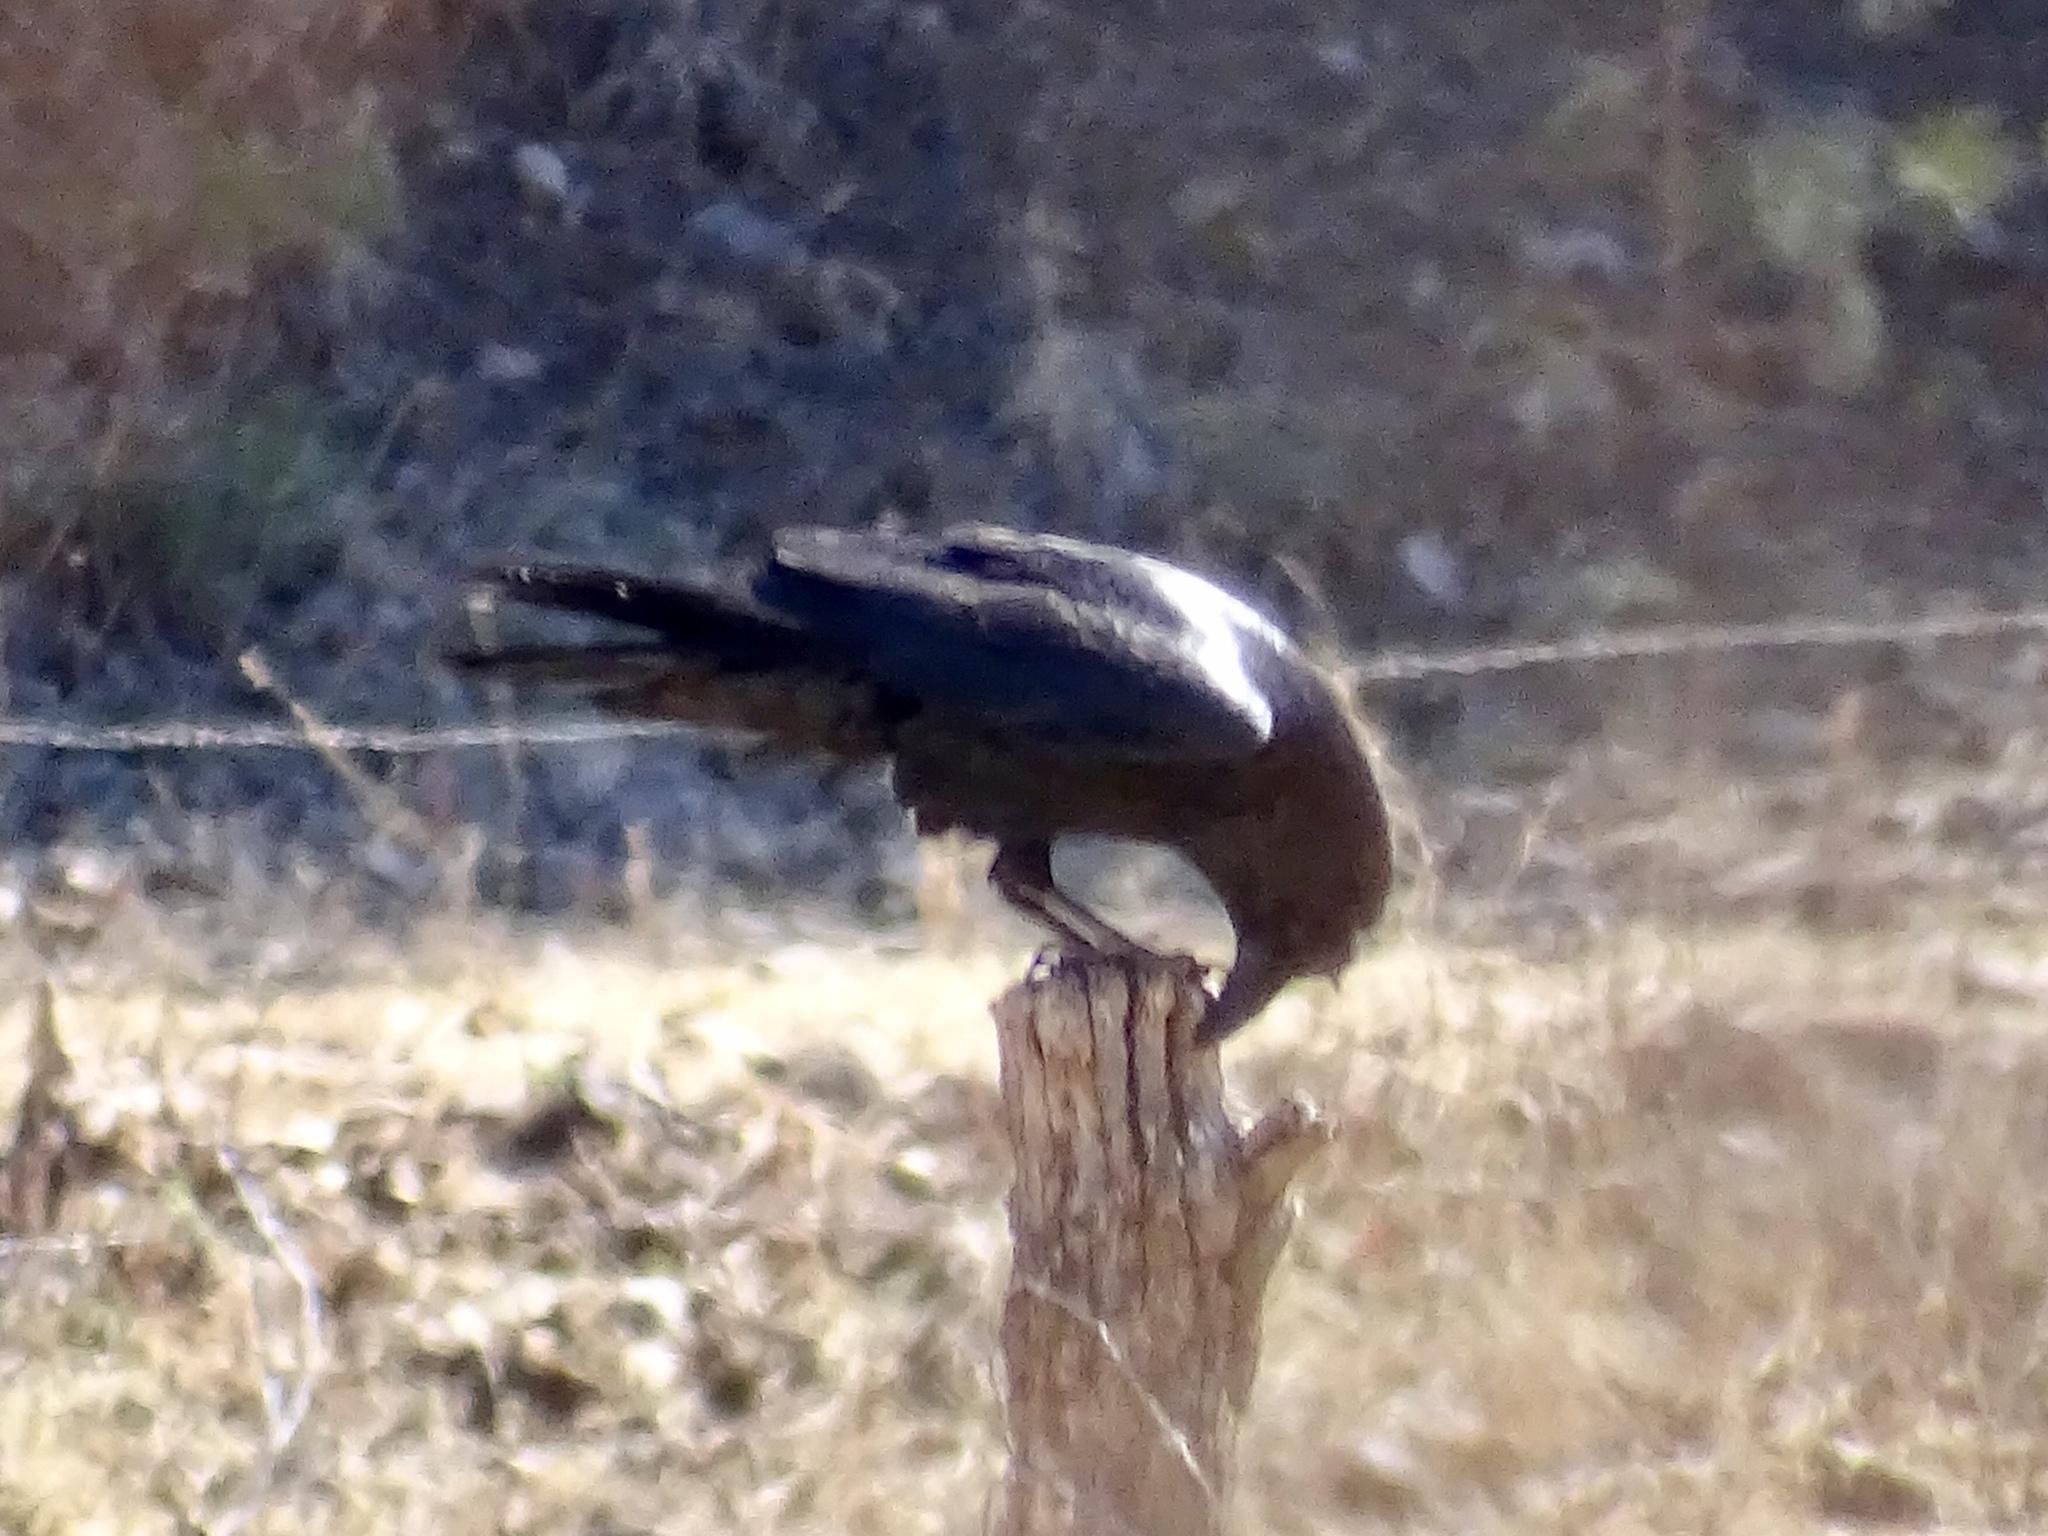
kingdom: Animalia
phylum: Chordata
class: Aves
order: Passeriformes
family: Corvidae
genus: Corvus
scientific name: Corvus corax
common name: Common raven
